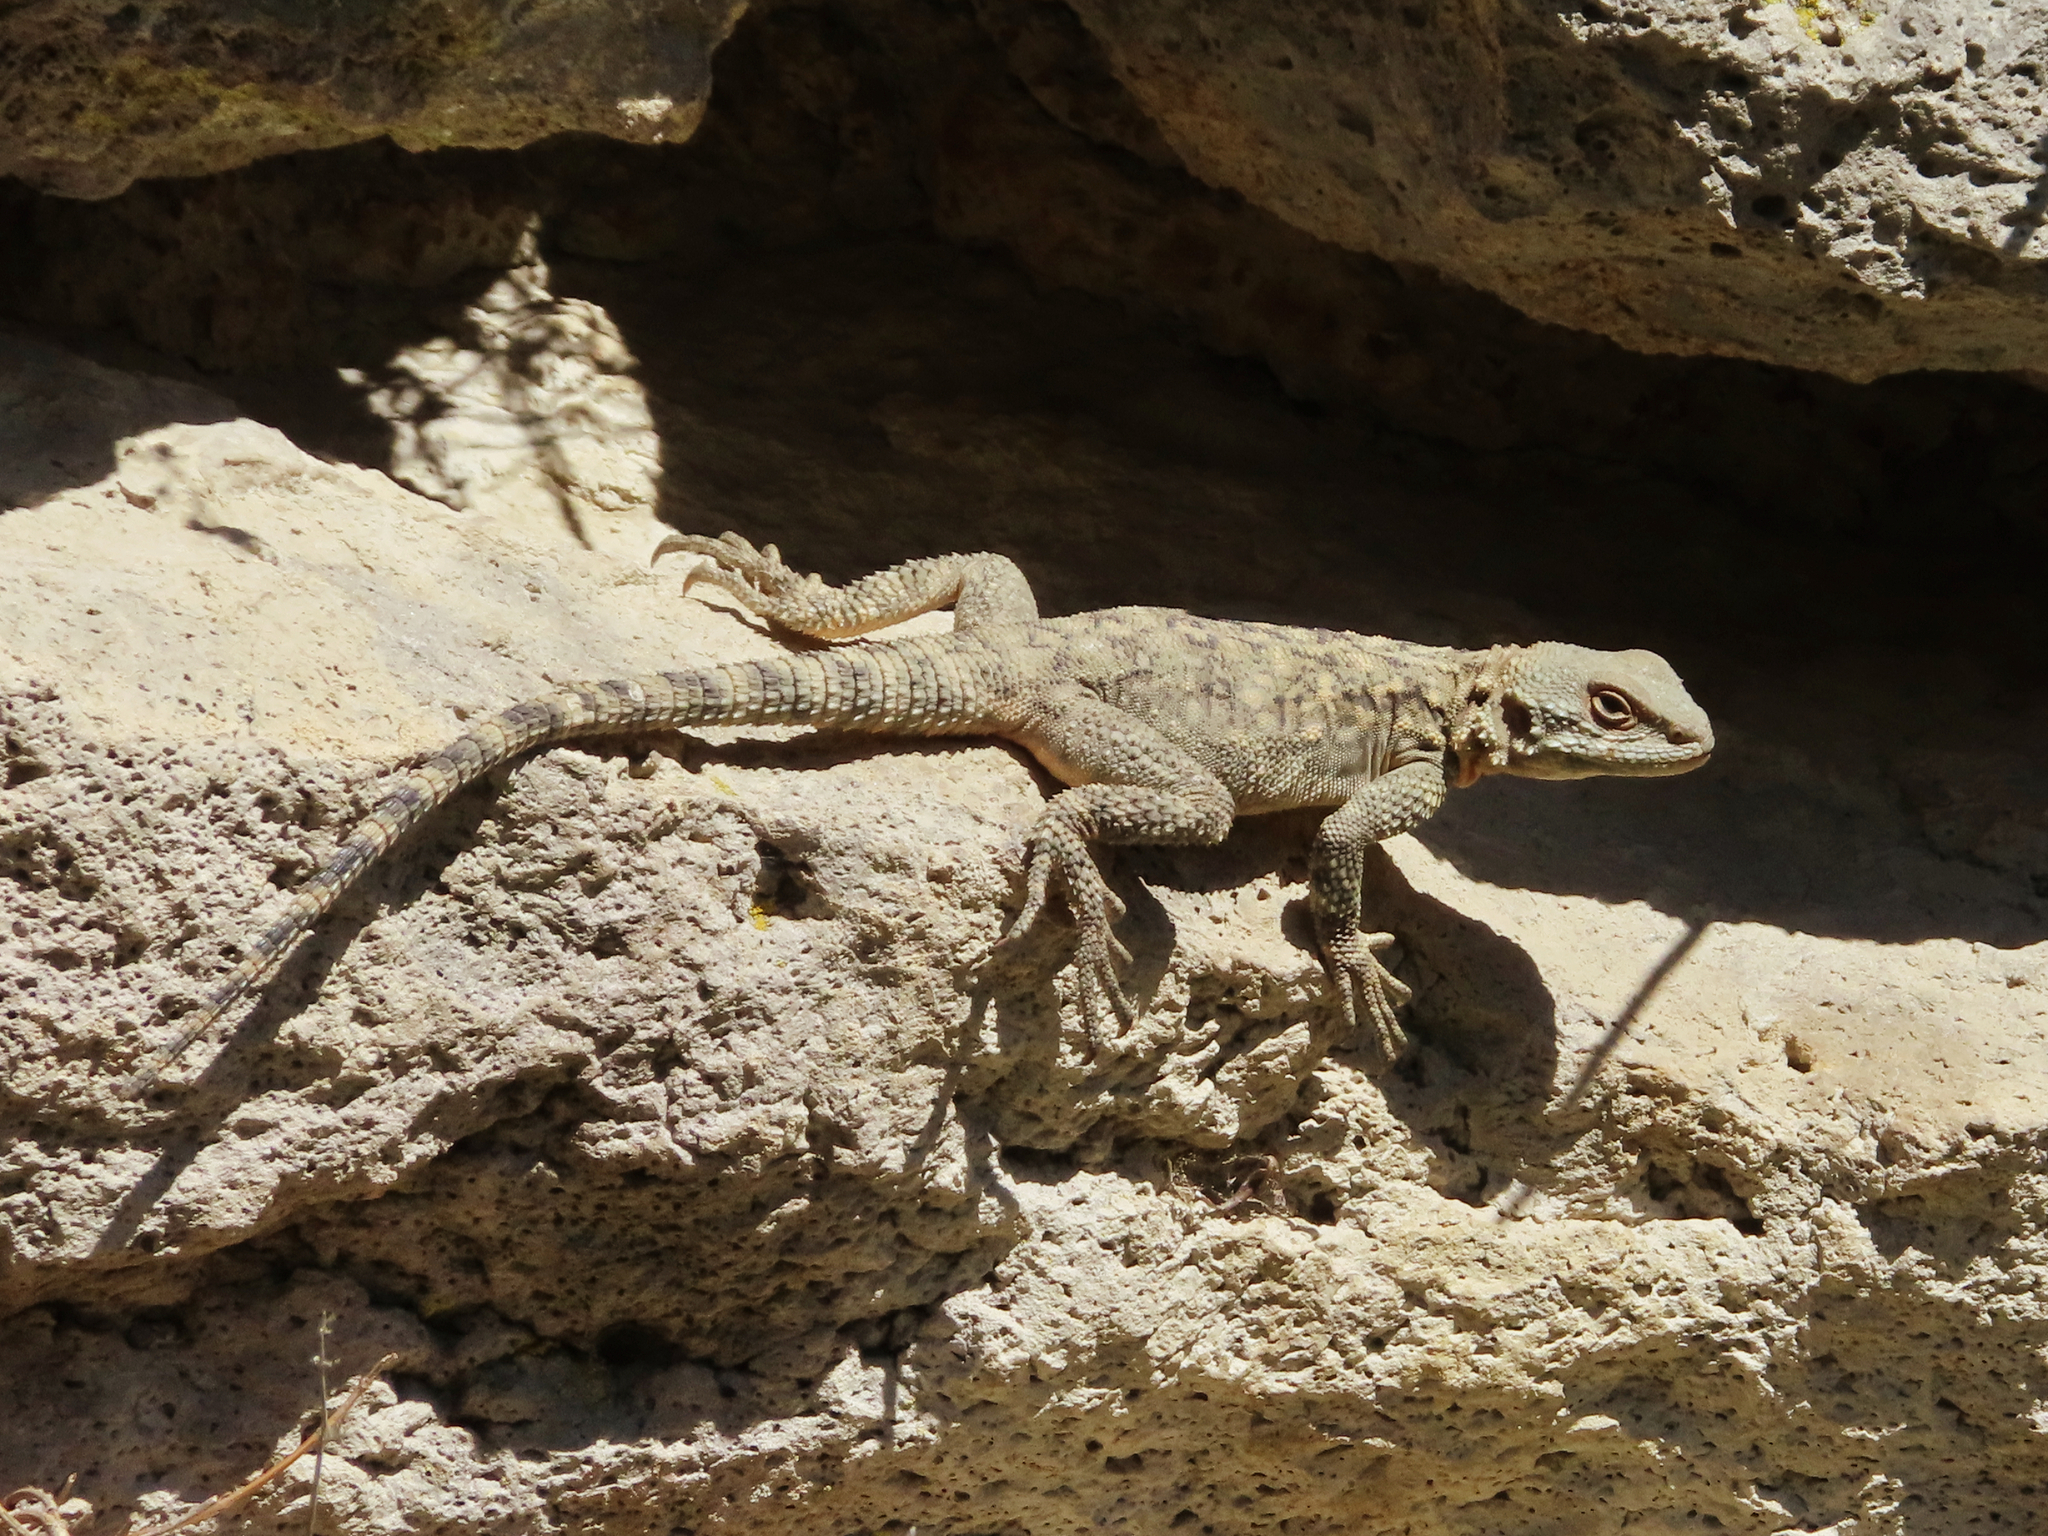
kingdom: Animalia
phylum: Chordata
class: Squamata
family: Agamidae
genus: Paralaudakia
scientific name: Paralaudakia caucasia
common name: Caucasian agama
